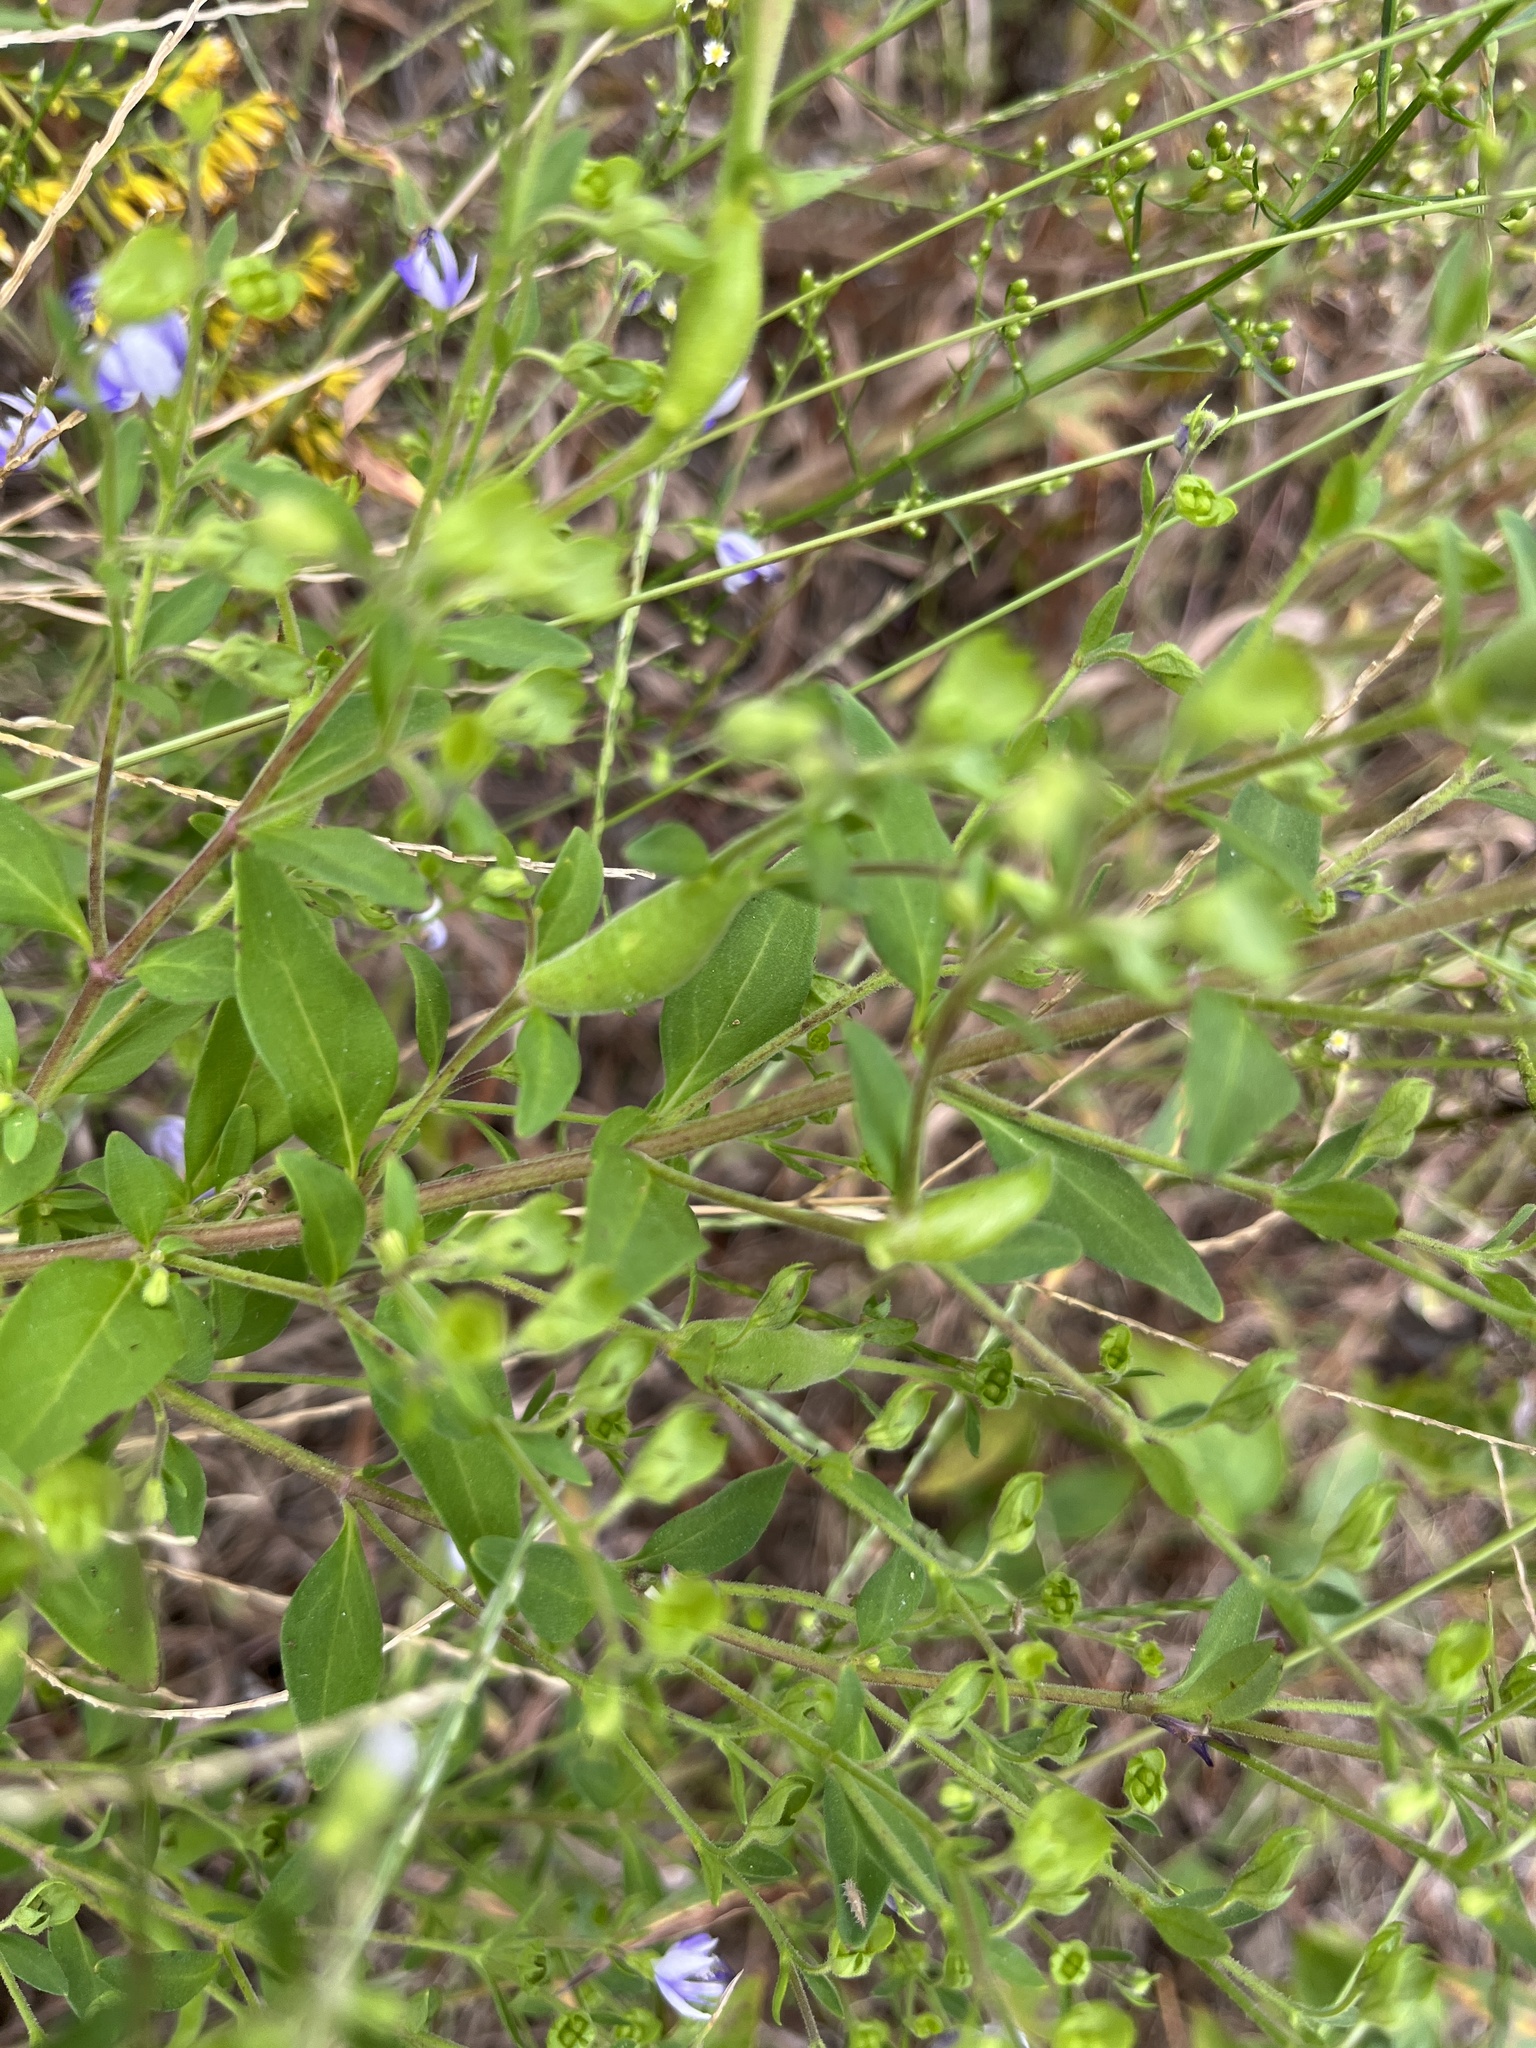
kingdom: Animalia
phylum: Arthropoda
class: Insecta
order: Lepidoptera
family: Cosmopterigidae
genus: Eteobalea
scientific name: Eteobalea sexnotella
